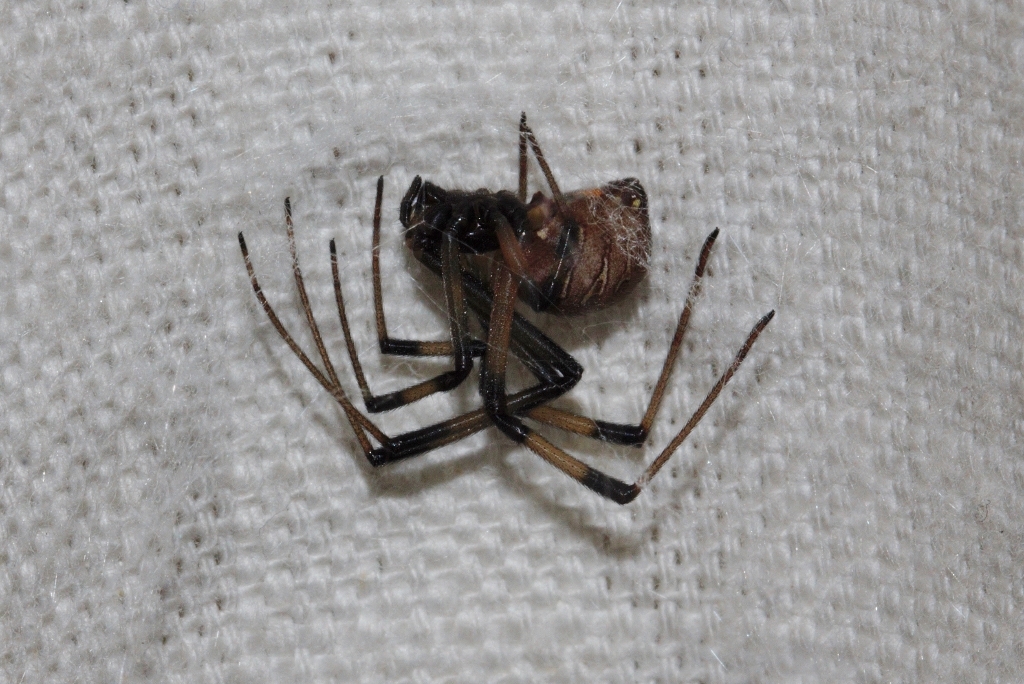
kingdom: Animalia
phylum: Arthropoda
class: Arachnida
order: Araneae
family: Theridiidae
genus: Latrodectus
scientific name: Latrodectus geometricus
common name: Brown widow spider
